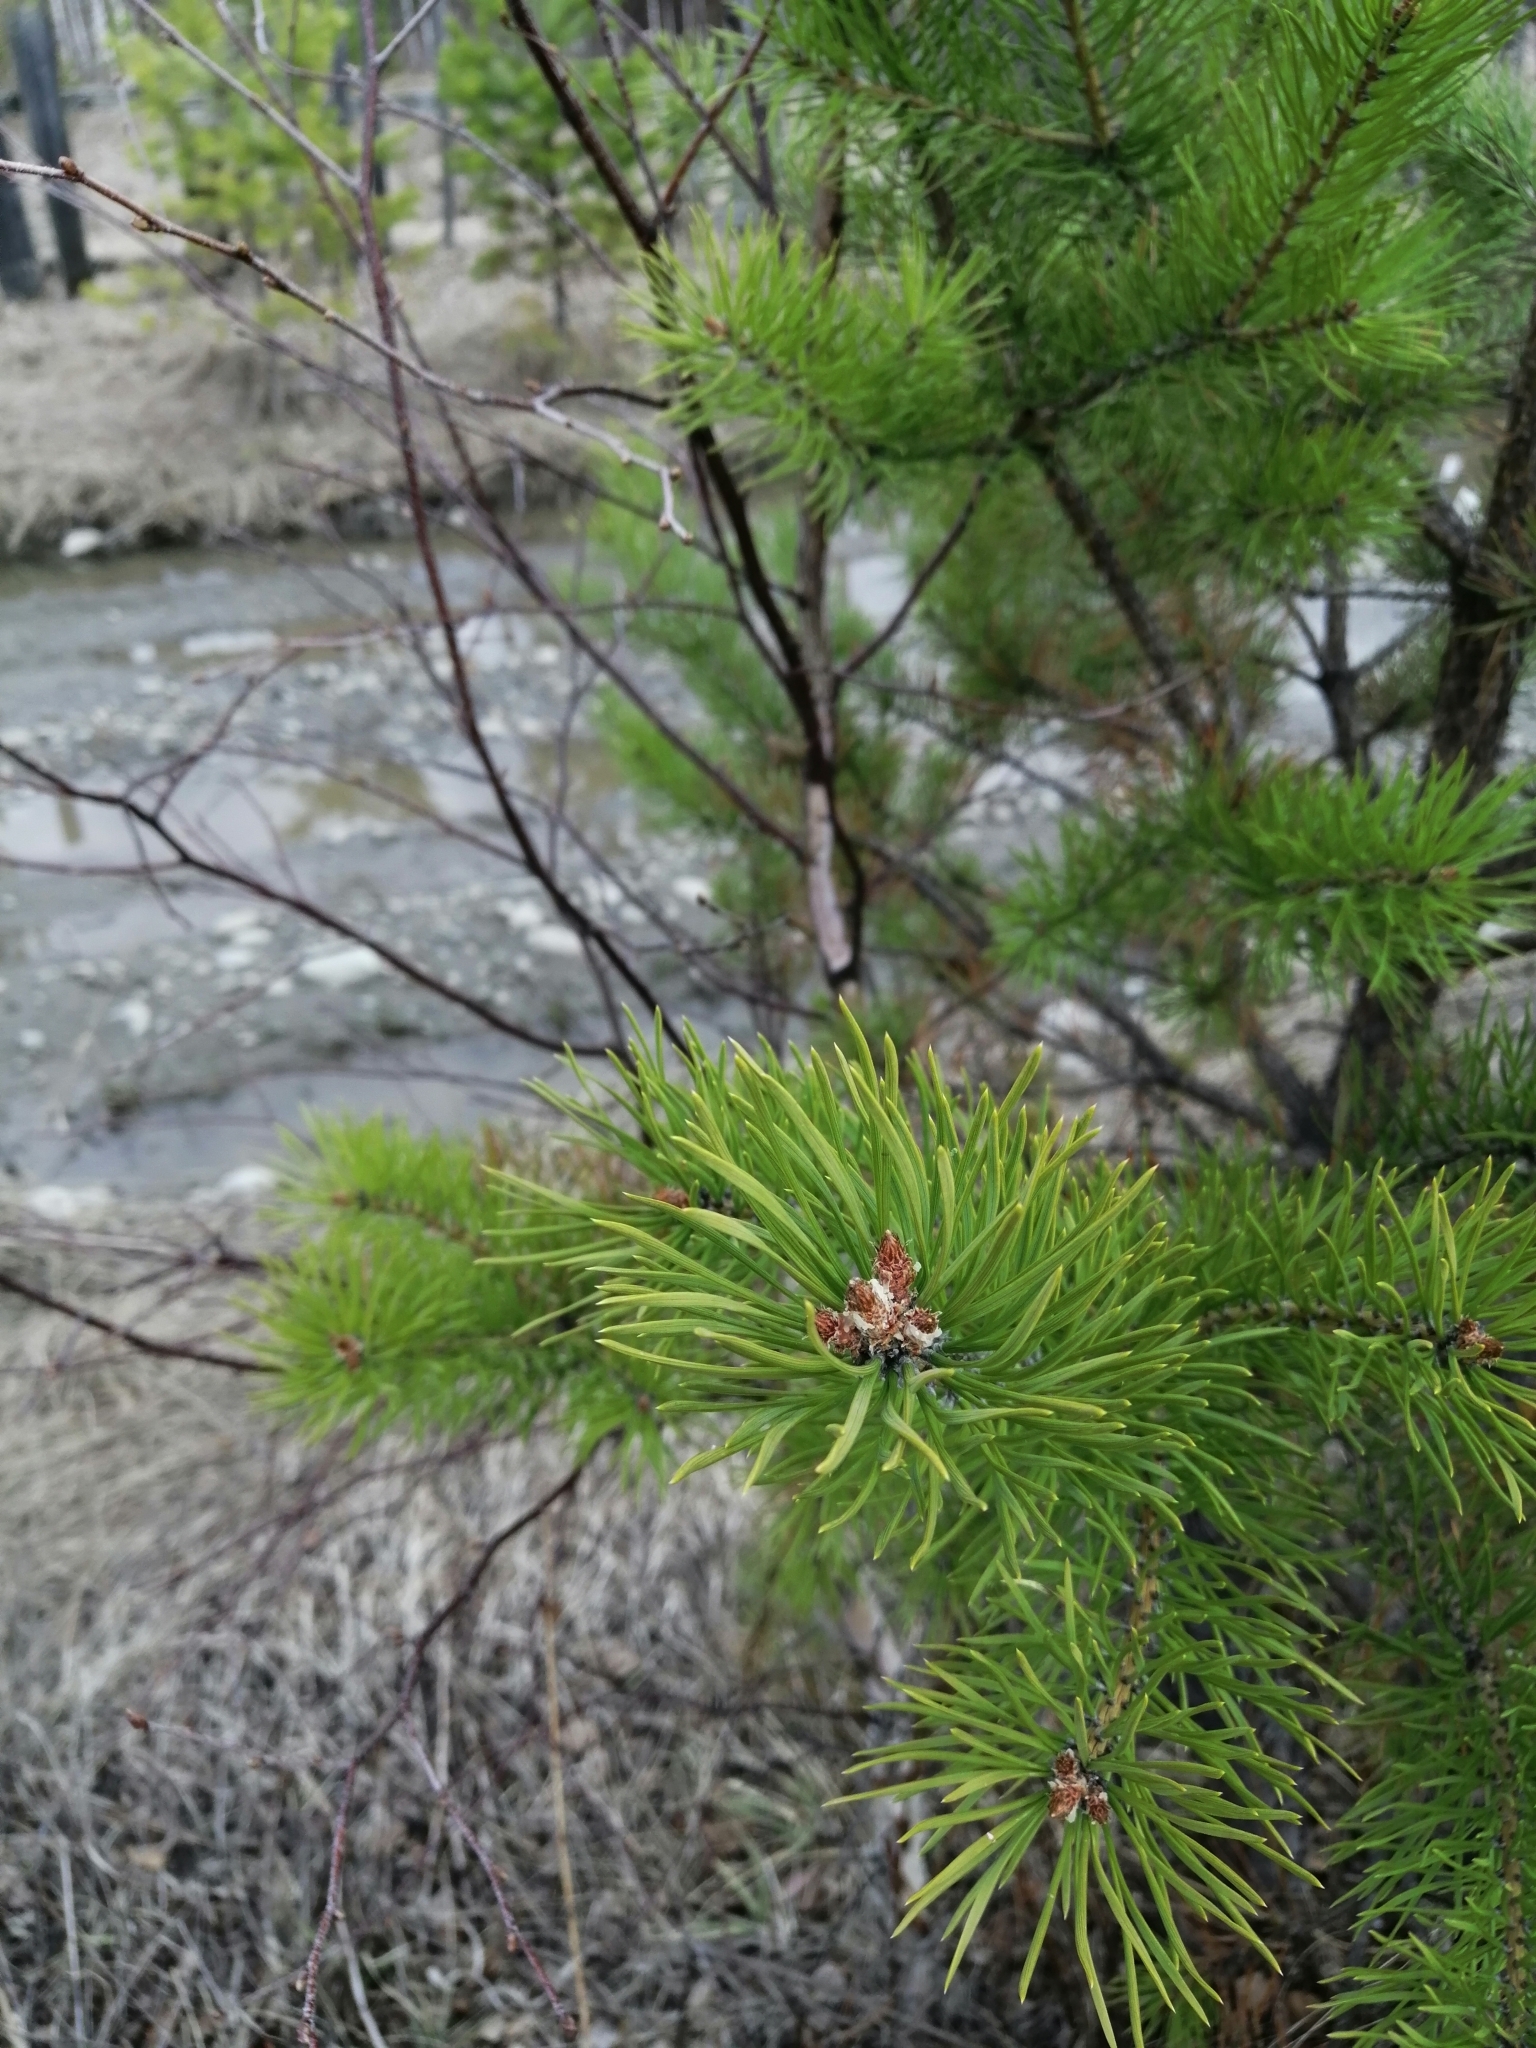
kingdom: Plantae
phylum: Tracheophyta
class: Pinopsida
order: Pinales
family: Pinaceae
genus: Pinus
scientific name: Pinus sylvestris
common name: Scots pine
